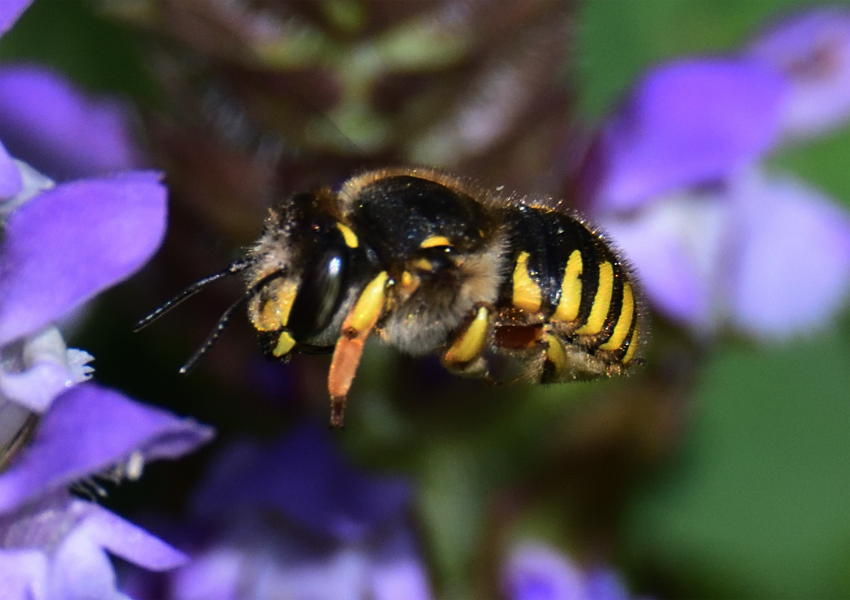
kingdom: Animalia
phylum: Arthropoda
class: Insecta
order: Hymenoptera
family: Megachilidae
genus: Anthidium
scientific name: Anthidium manicatum
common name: Wool carder bee
